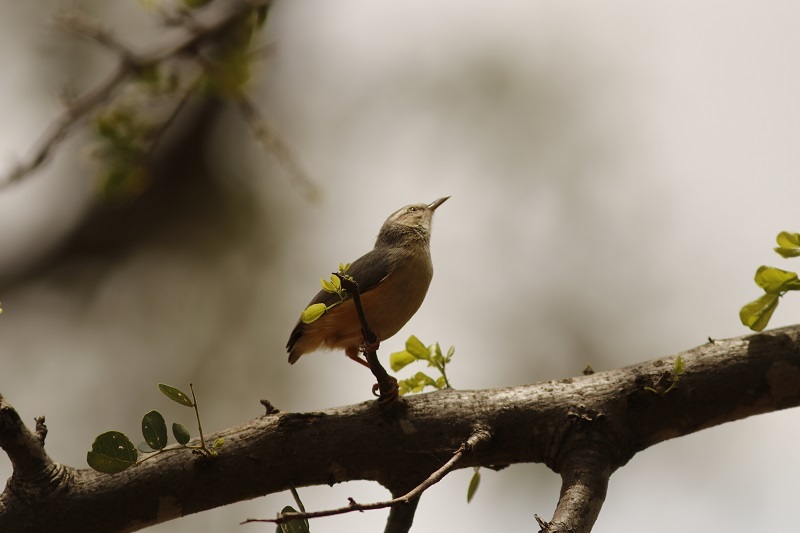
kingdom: Animalia
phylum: Chordata
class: Aves
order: Passeriformes
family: Macrosphenidae
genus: Sylvietta
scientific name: Sylvietta rufescens
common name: Long-billed crombec
